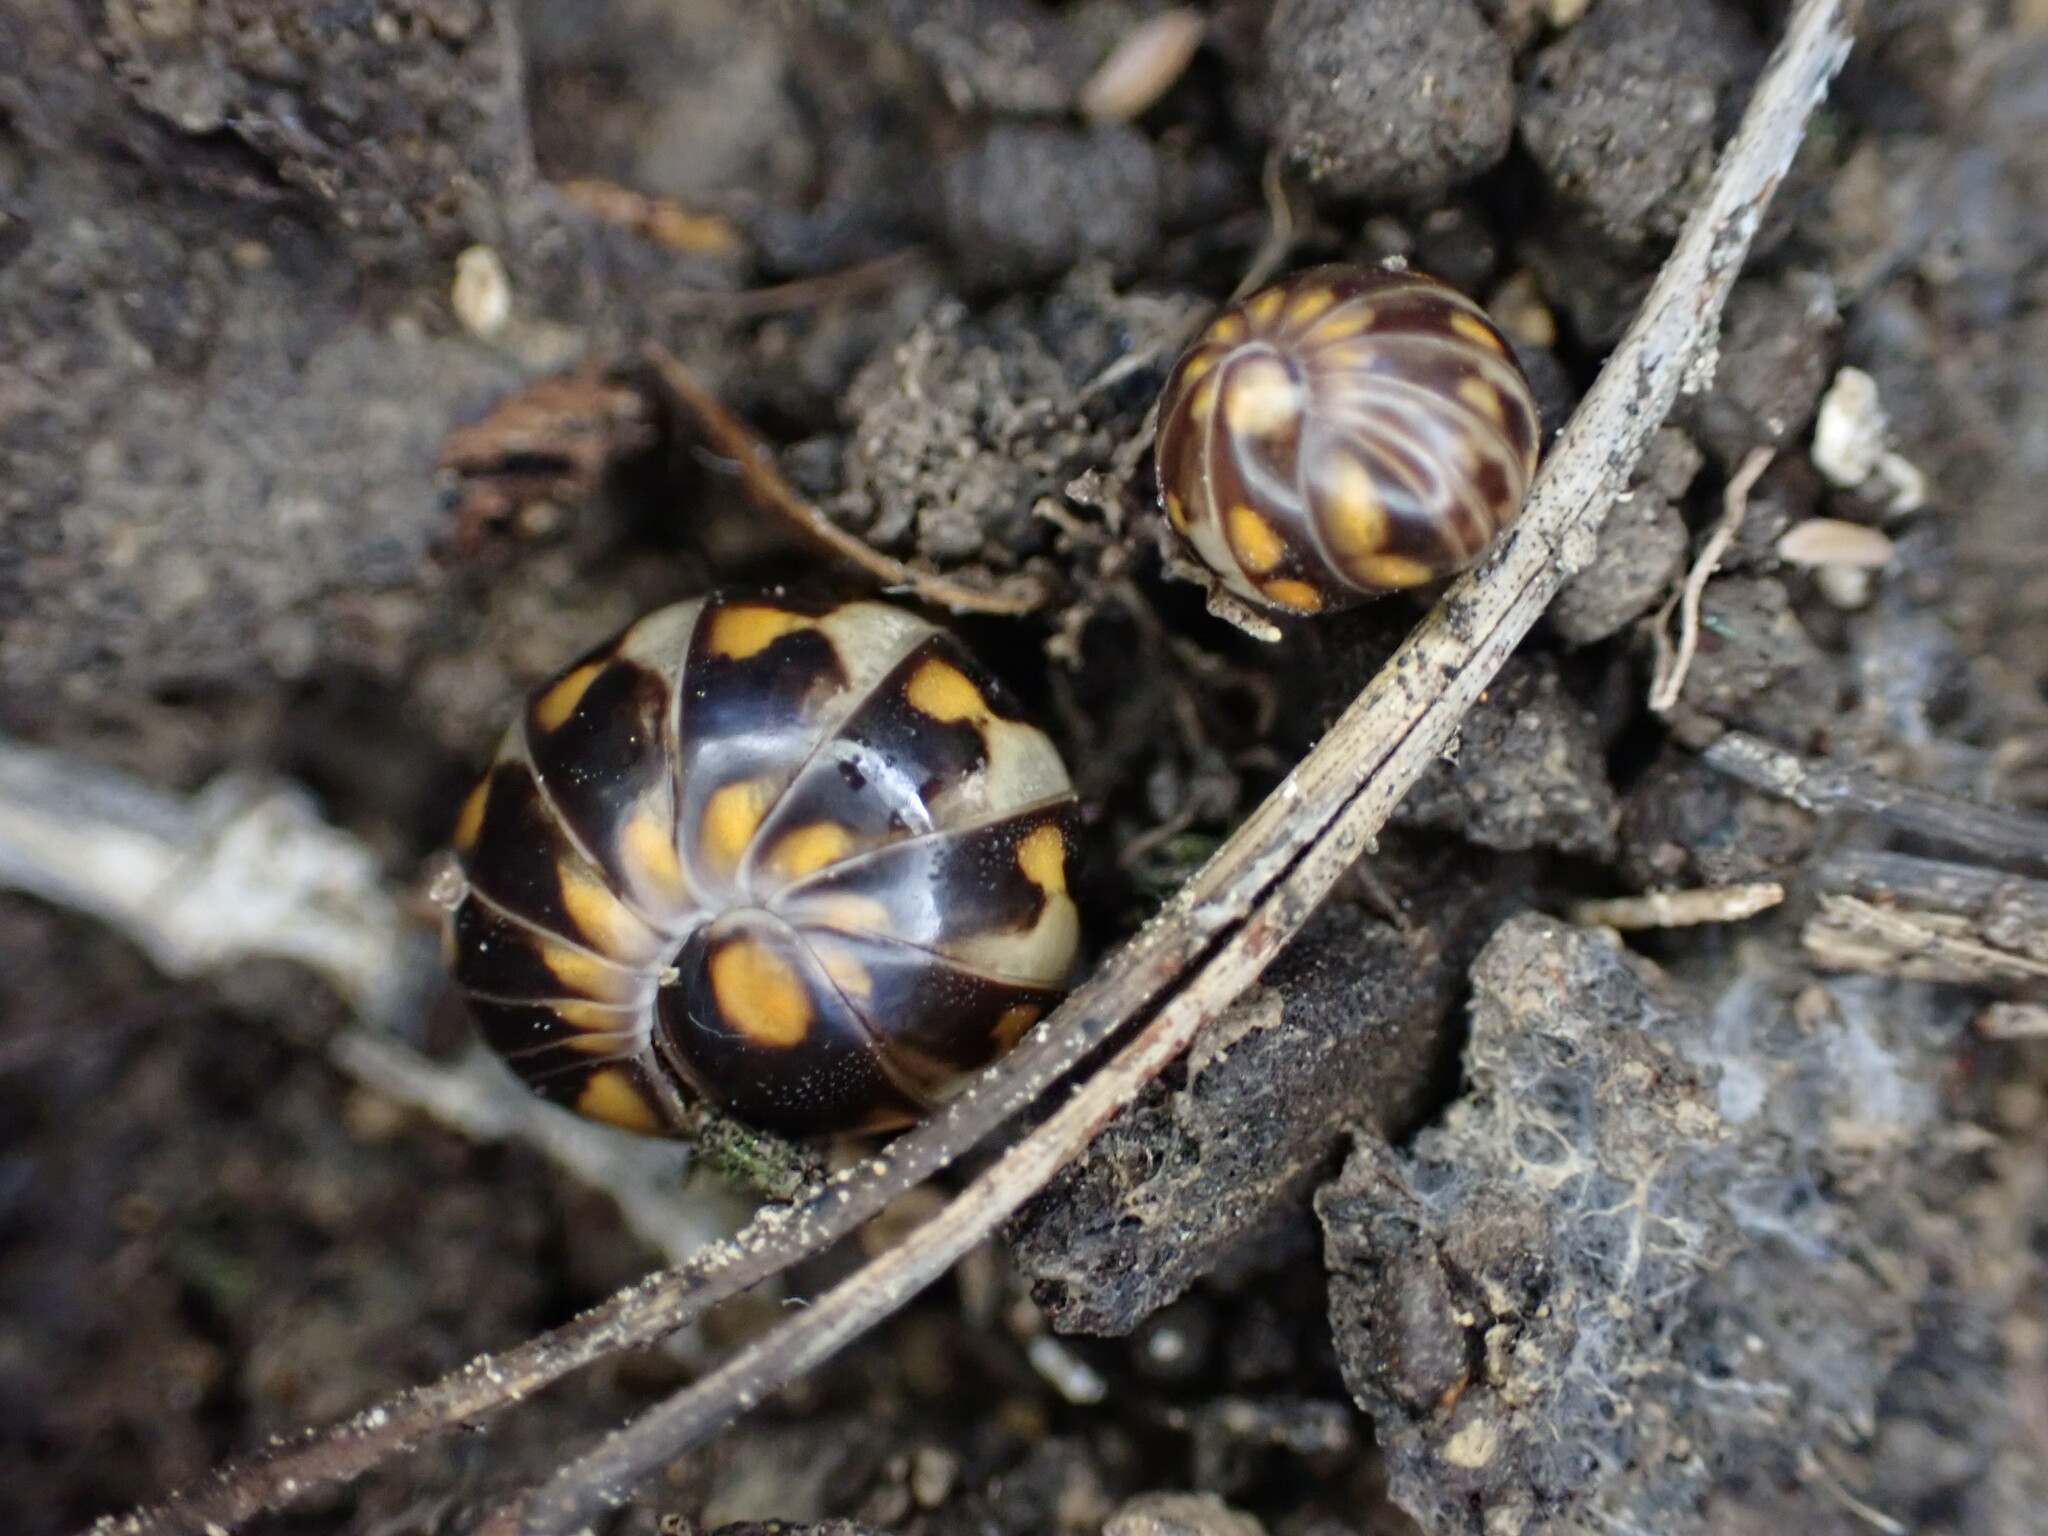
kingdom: Animalia
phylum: Arthropoda
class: Diplopoda
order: Glomerida
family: Glomeridae
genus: Glomeris
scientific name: Glomeris valesiaca
